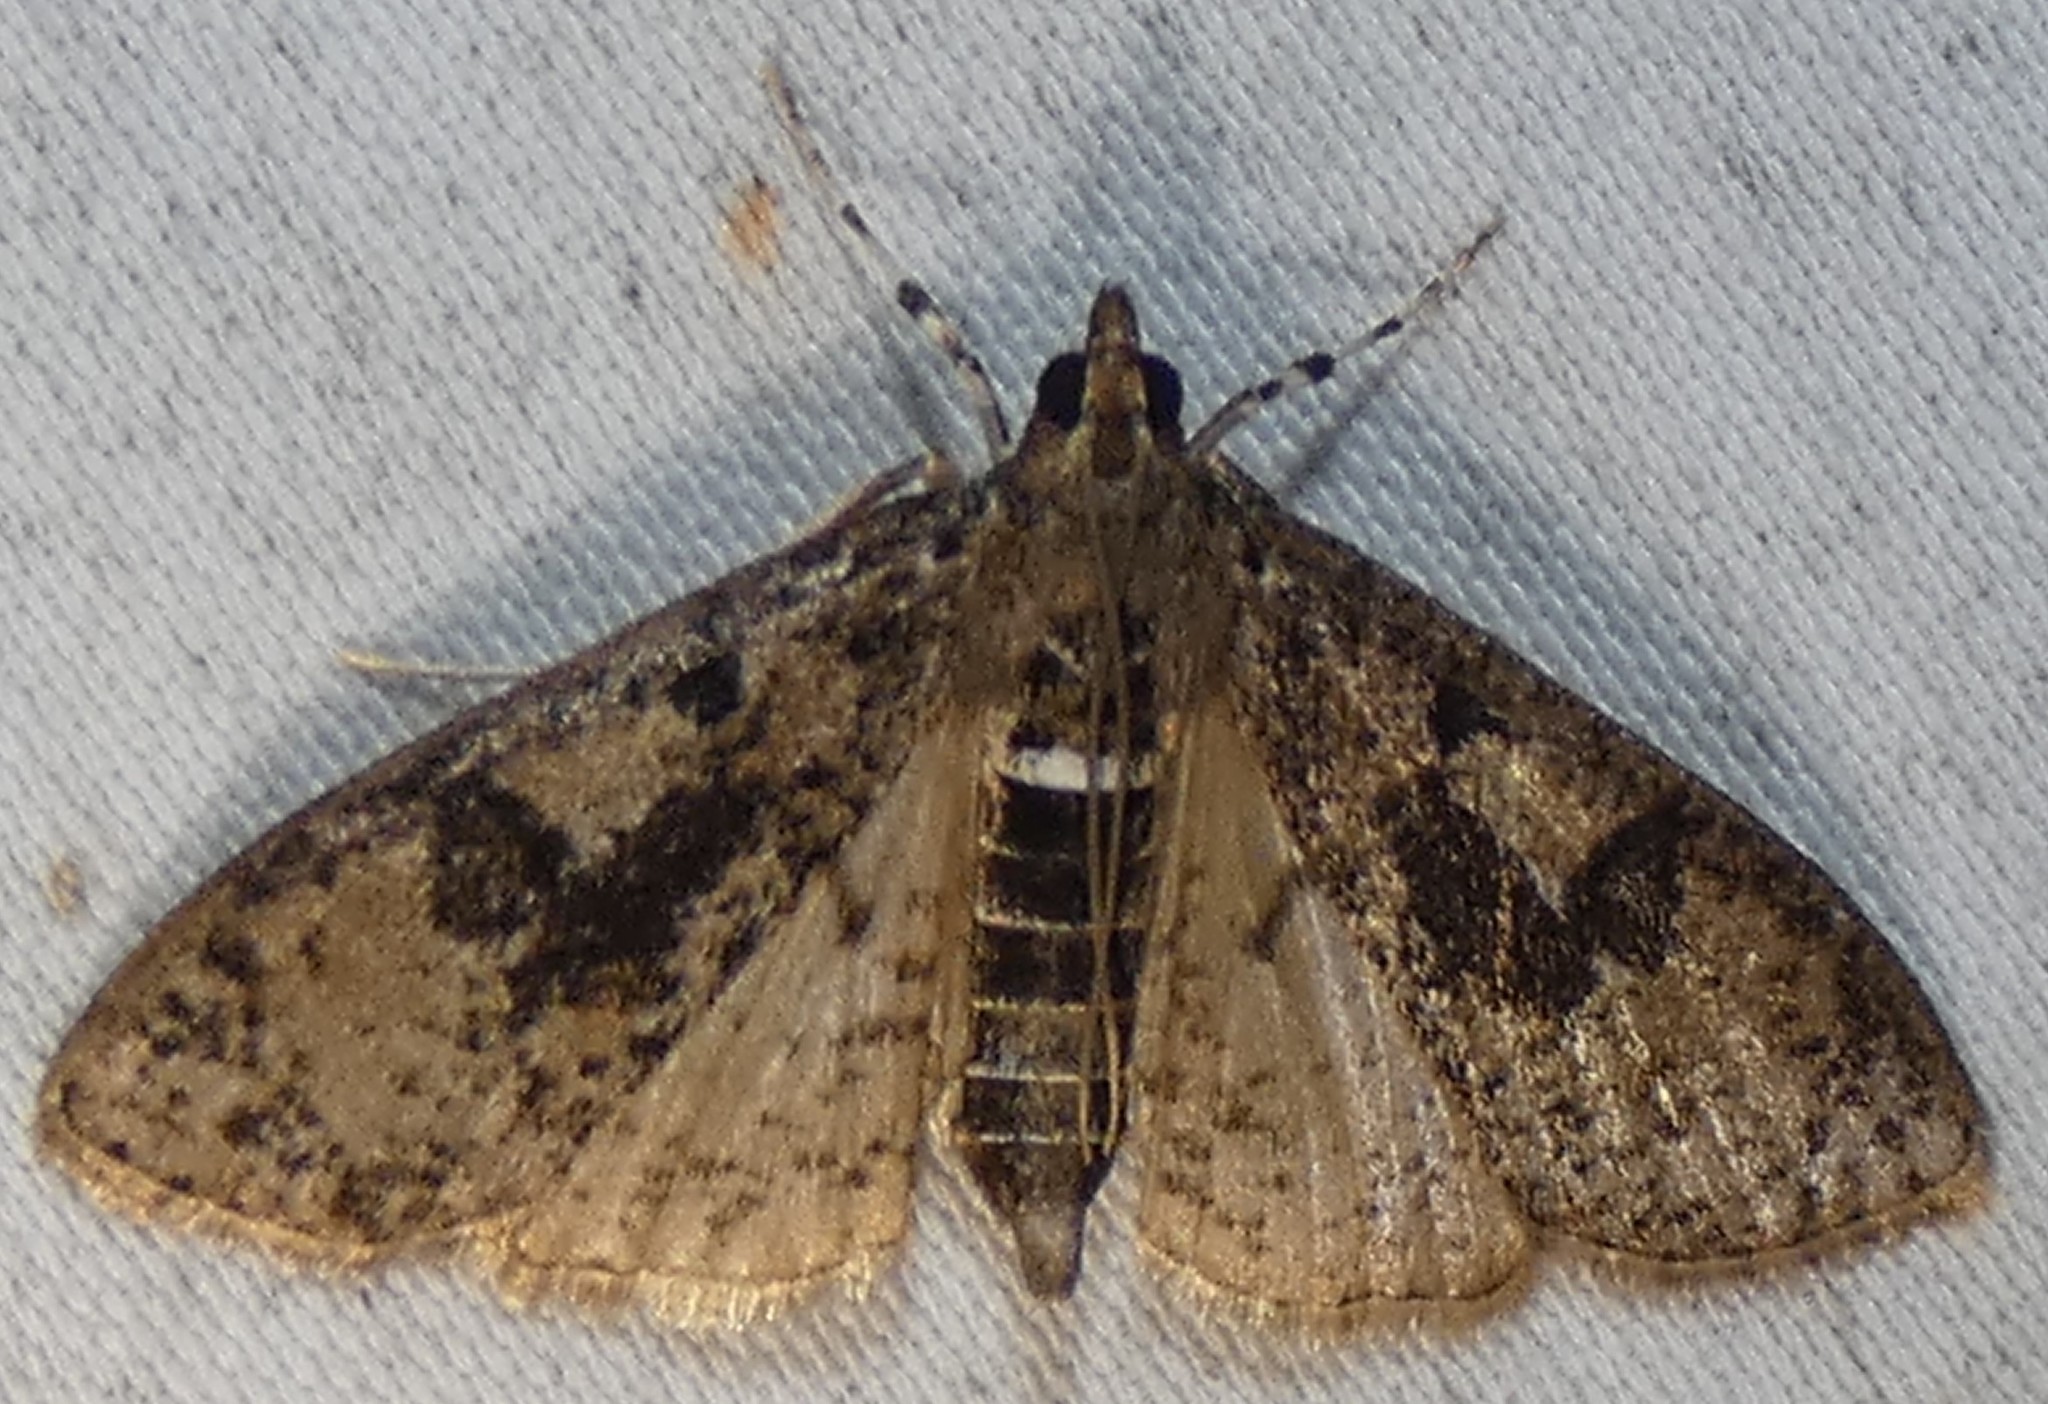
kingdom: Animalia
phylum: Arthropoda
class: Insecta
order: Lepidoptera
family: Crambidae
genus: Palpita
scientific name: Palpita magniferalis
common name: Splendid palpita moth
